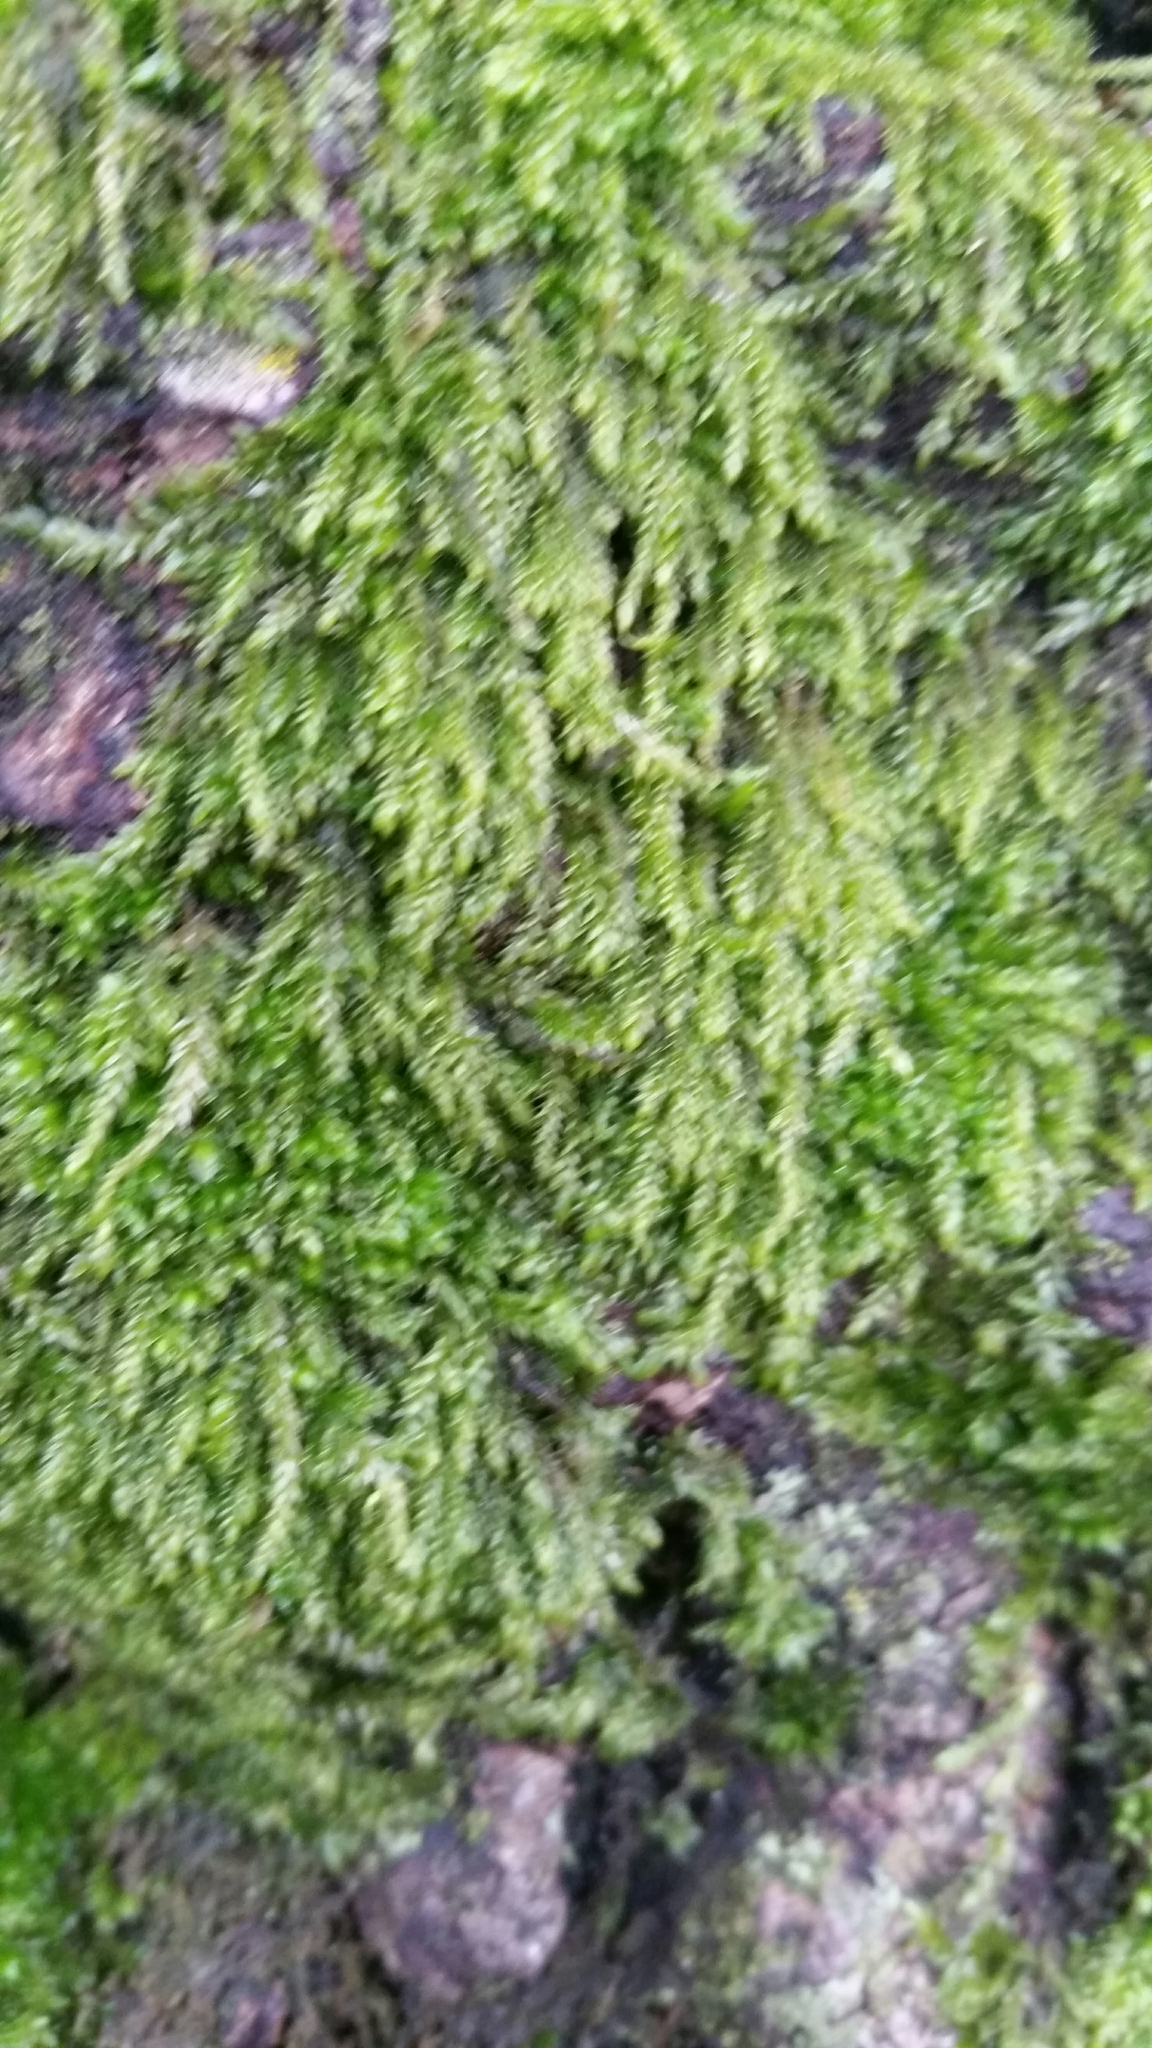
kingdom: Plantae
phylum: Bryophyta
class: Bryopsida
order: Hypnales
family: Hypnaceae
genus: Hypnum
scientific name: Hypnum cupressiforme
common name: Cypress-leaved plait-moss
